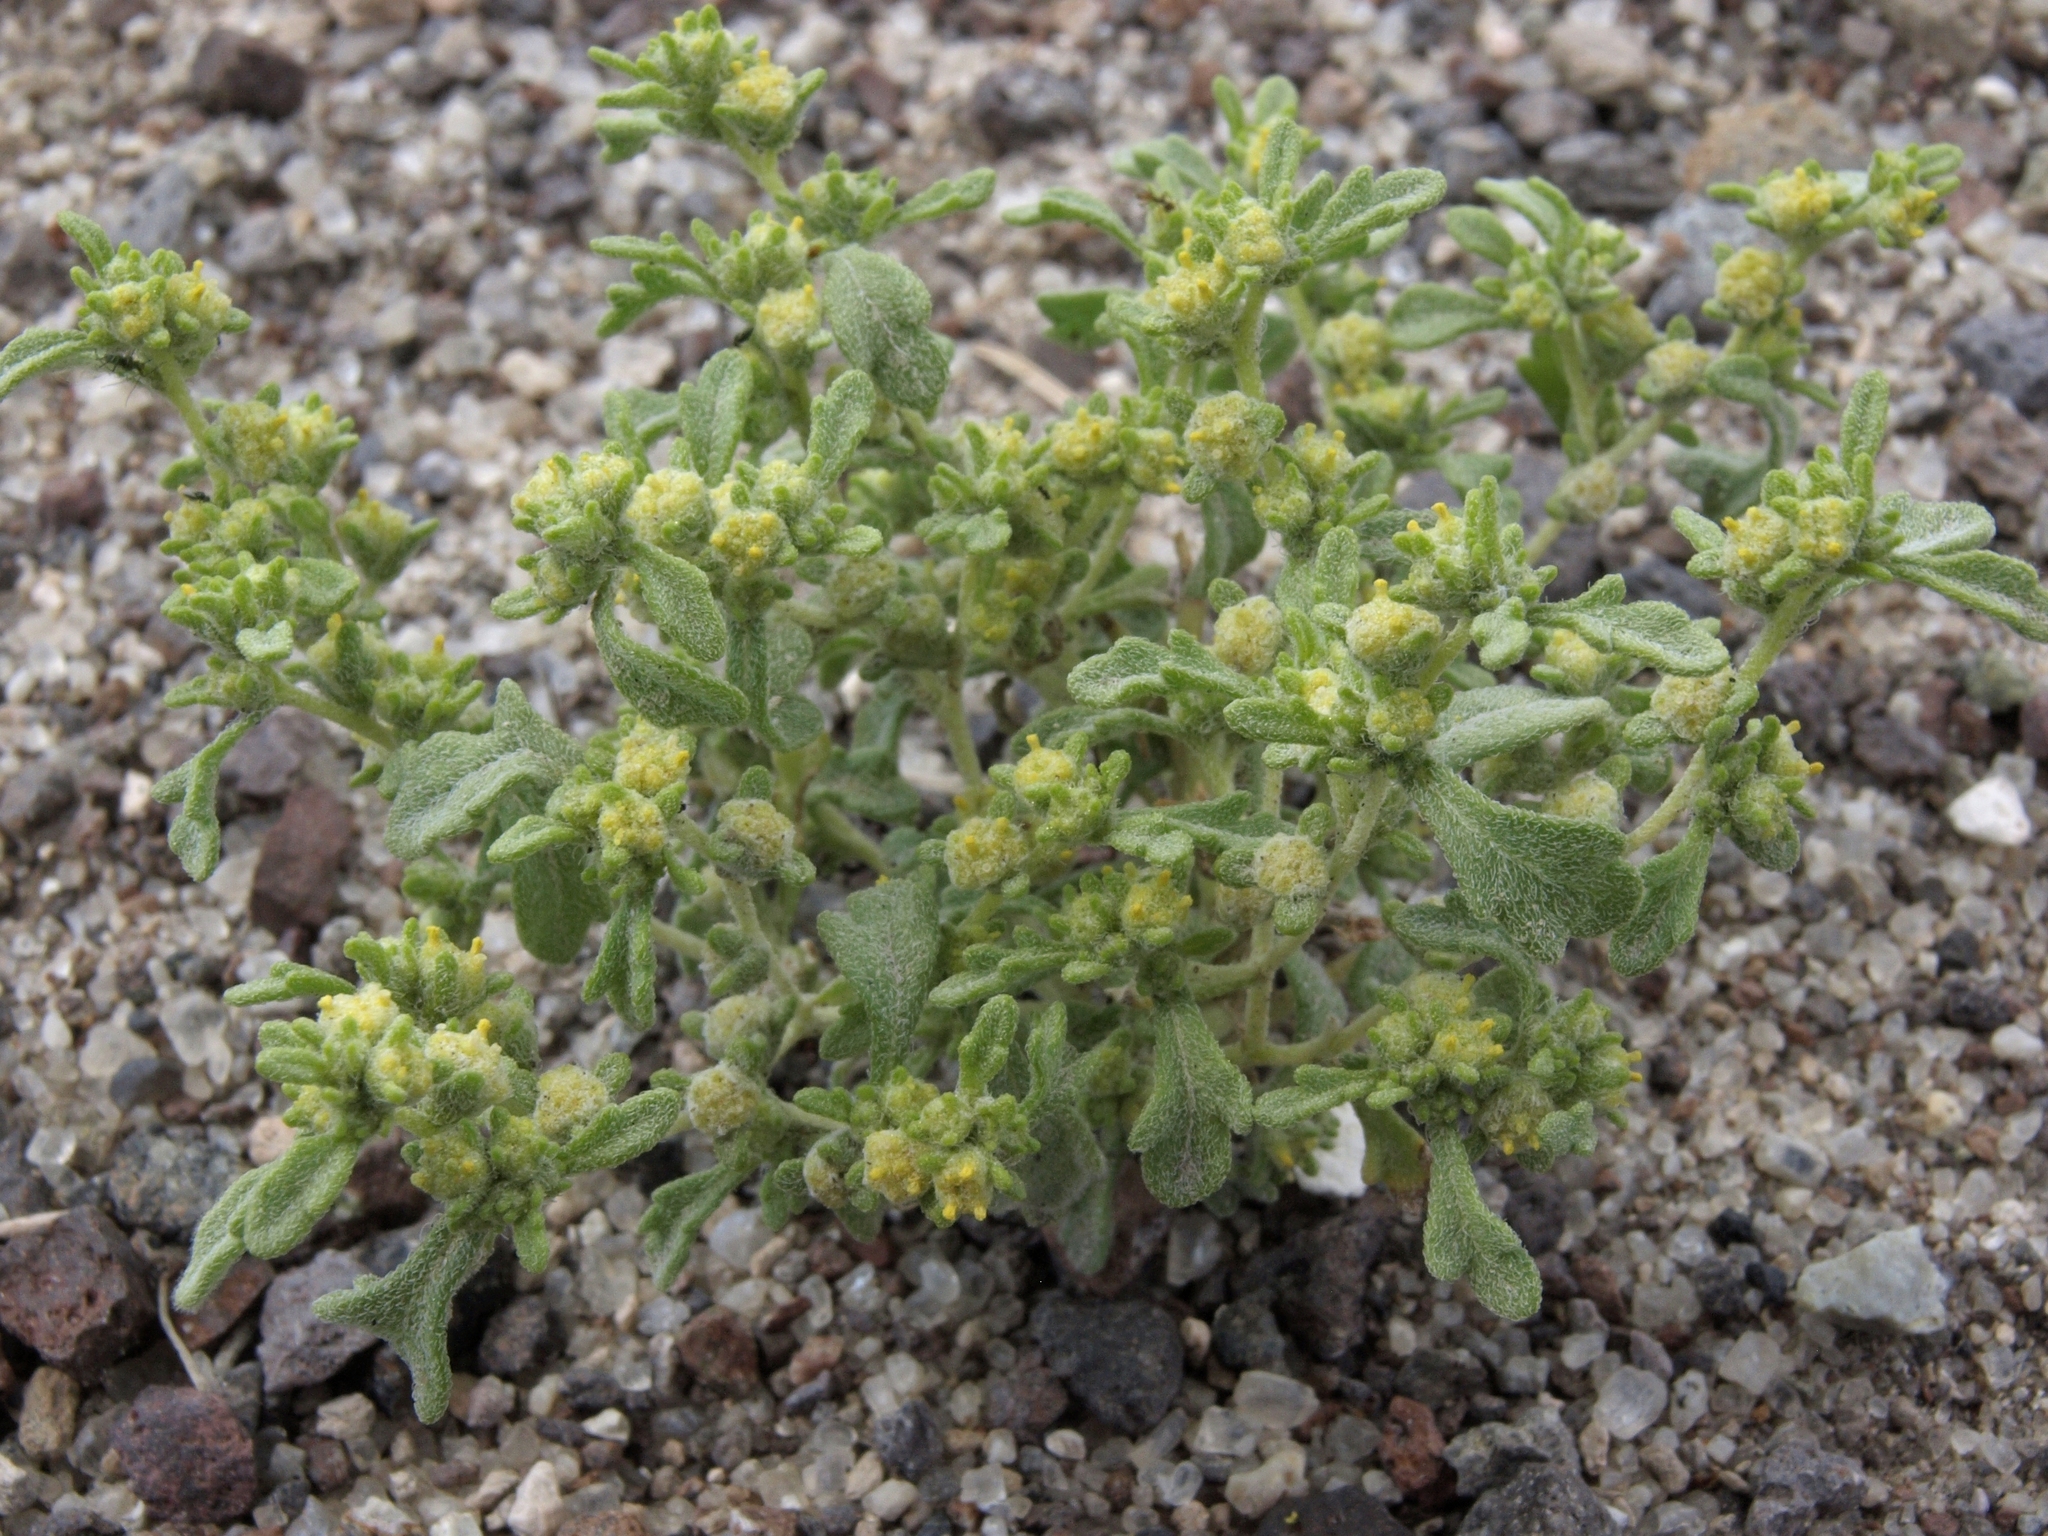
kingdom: Plantae
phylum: Tracheophyta
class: Magnoliopsida
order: Asterales
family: Asteraceae
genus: Euphrosyne
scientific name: Euphrosyne nevadensis
